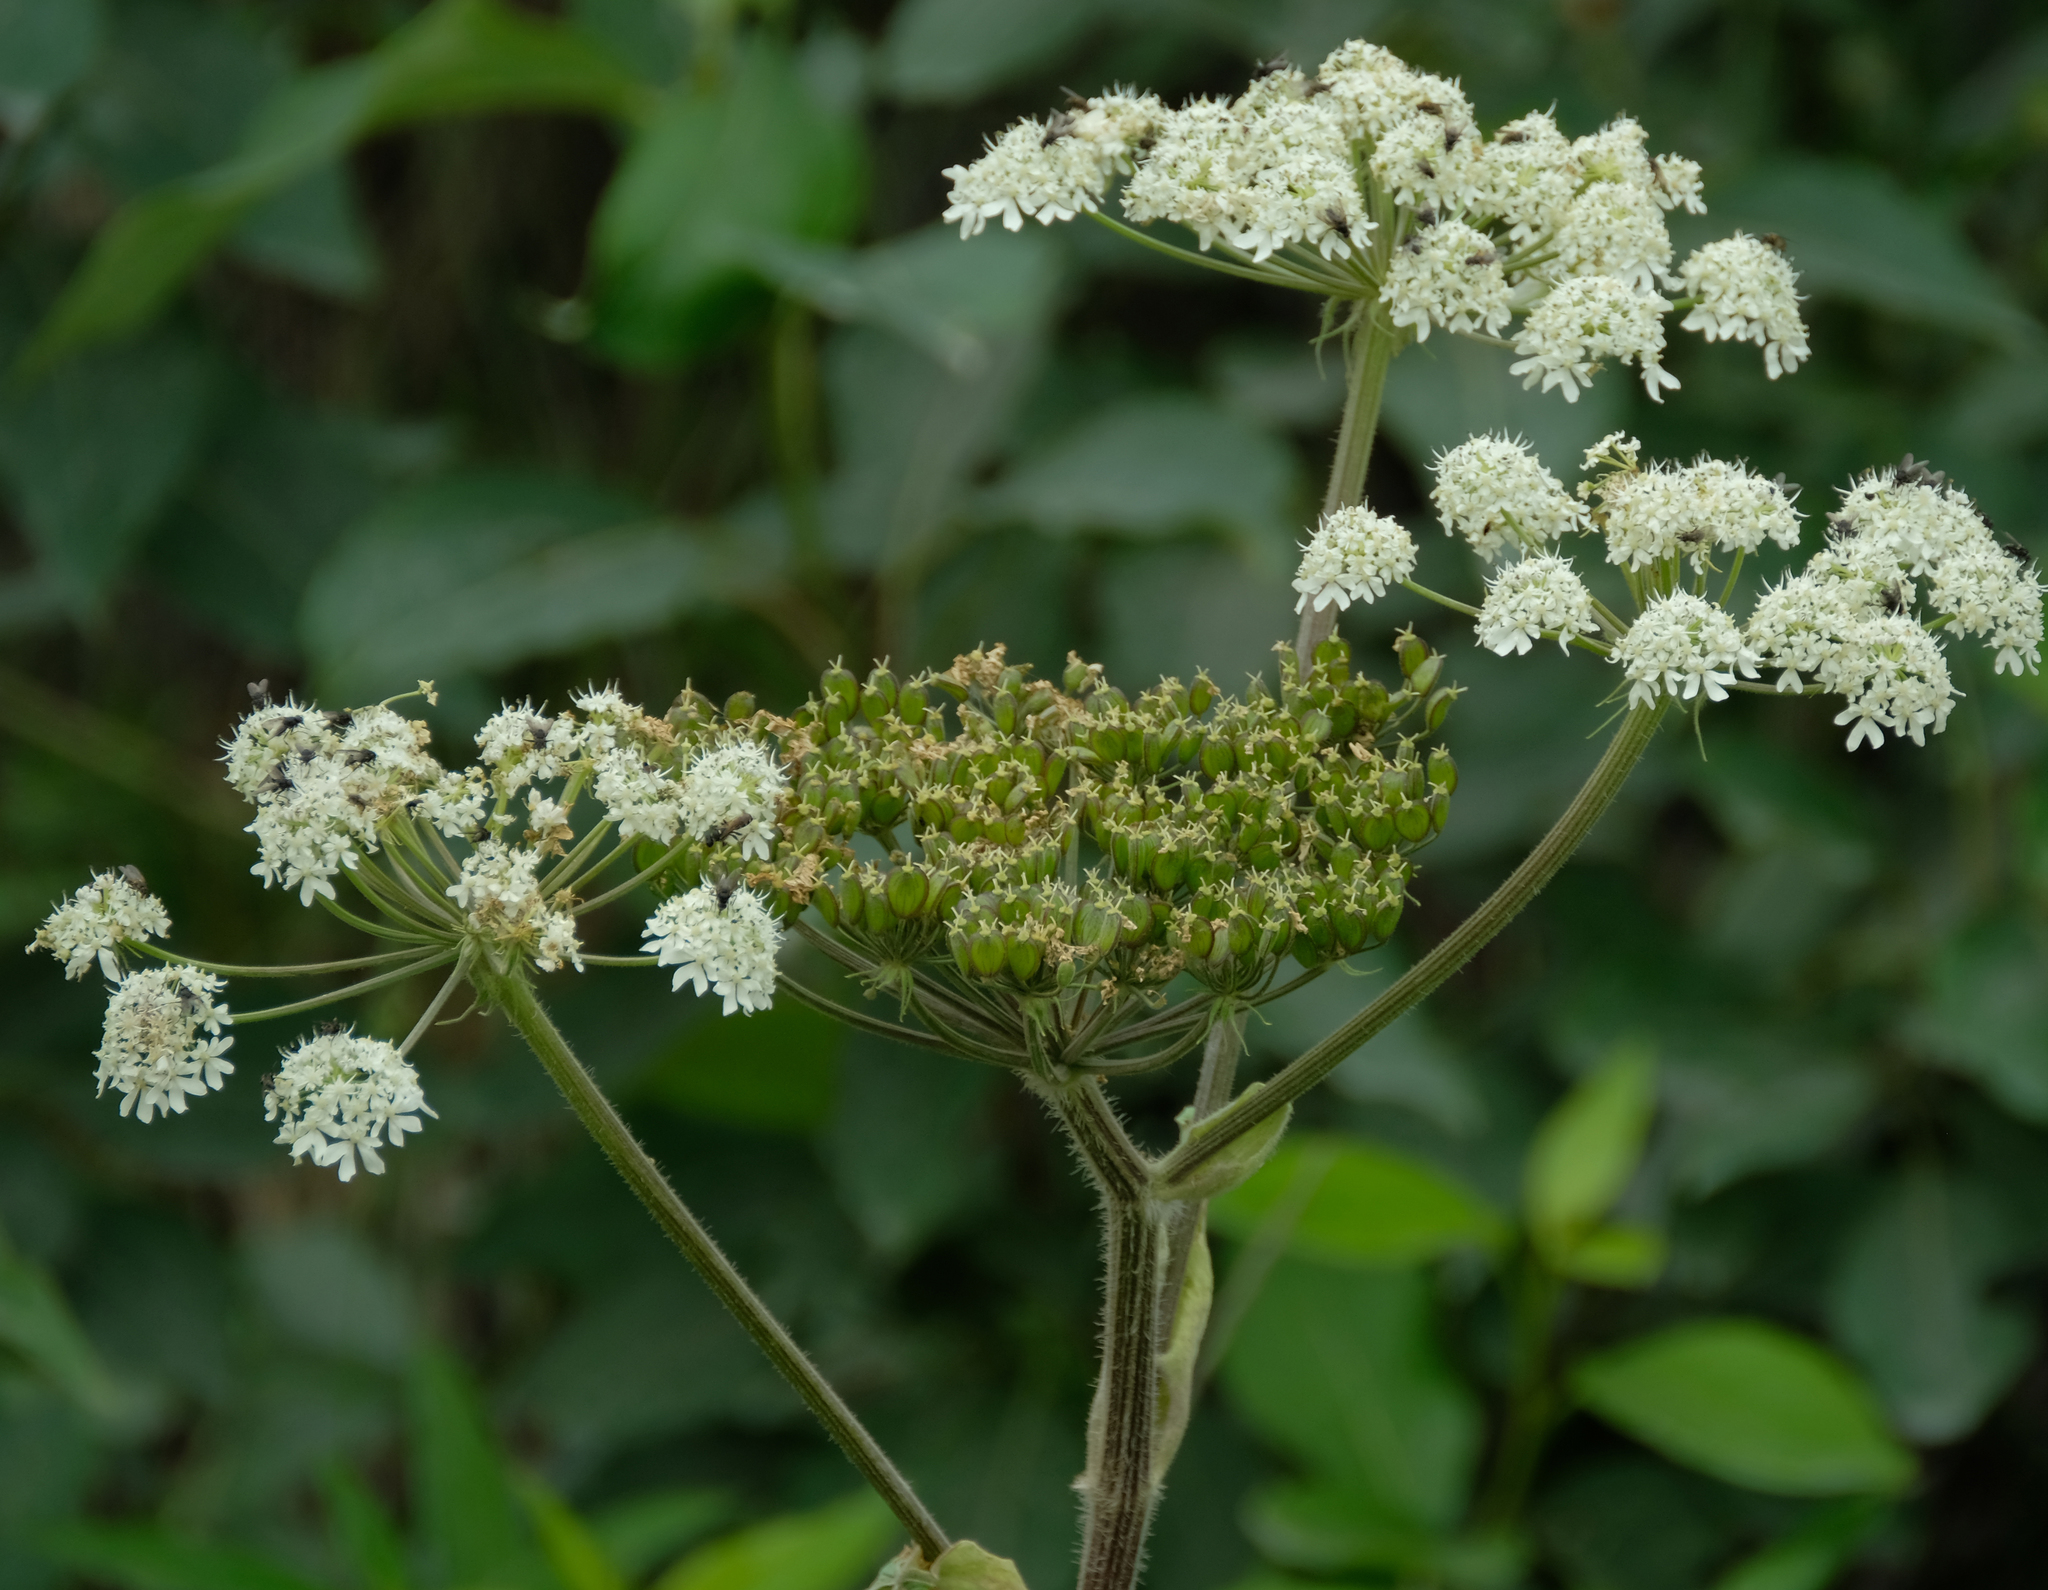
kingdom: Plantae
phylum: Tracheophyta
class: Magnoliopsida
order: Apiales
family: Apiaceae
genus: Heracleum
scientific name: Heracleum maximum
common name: American cow parsnip
